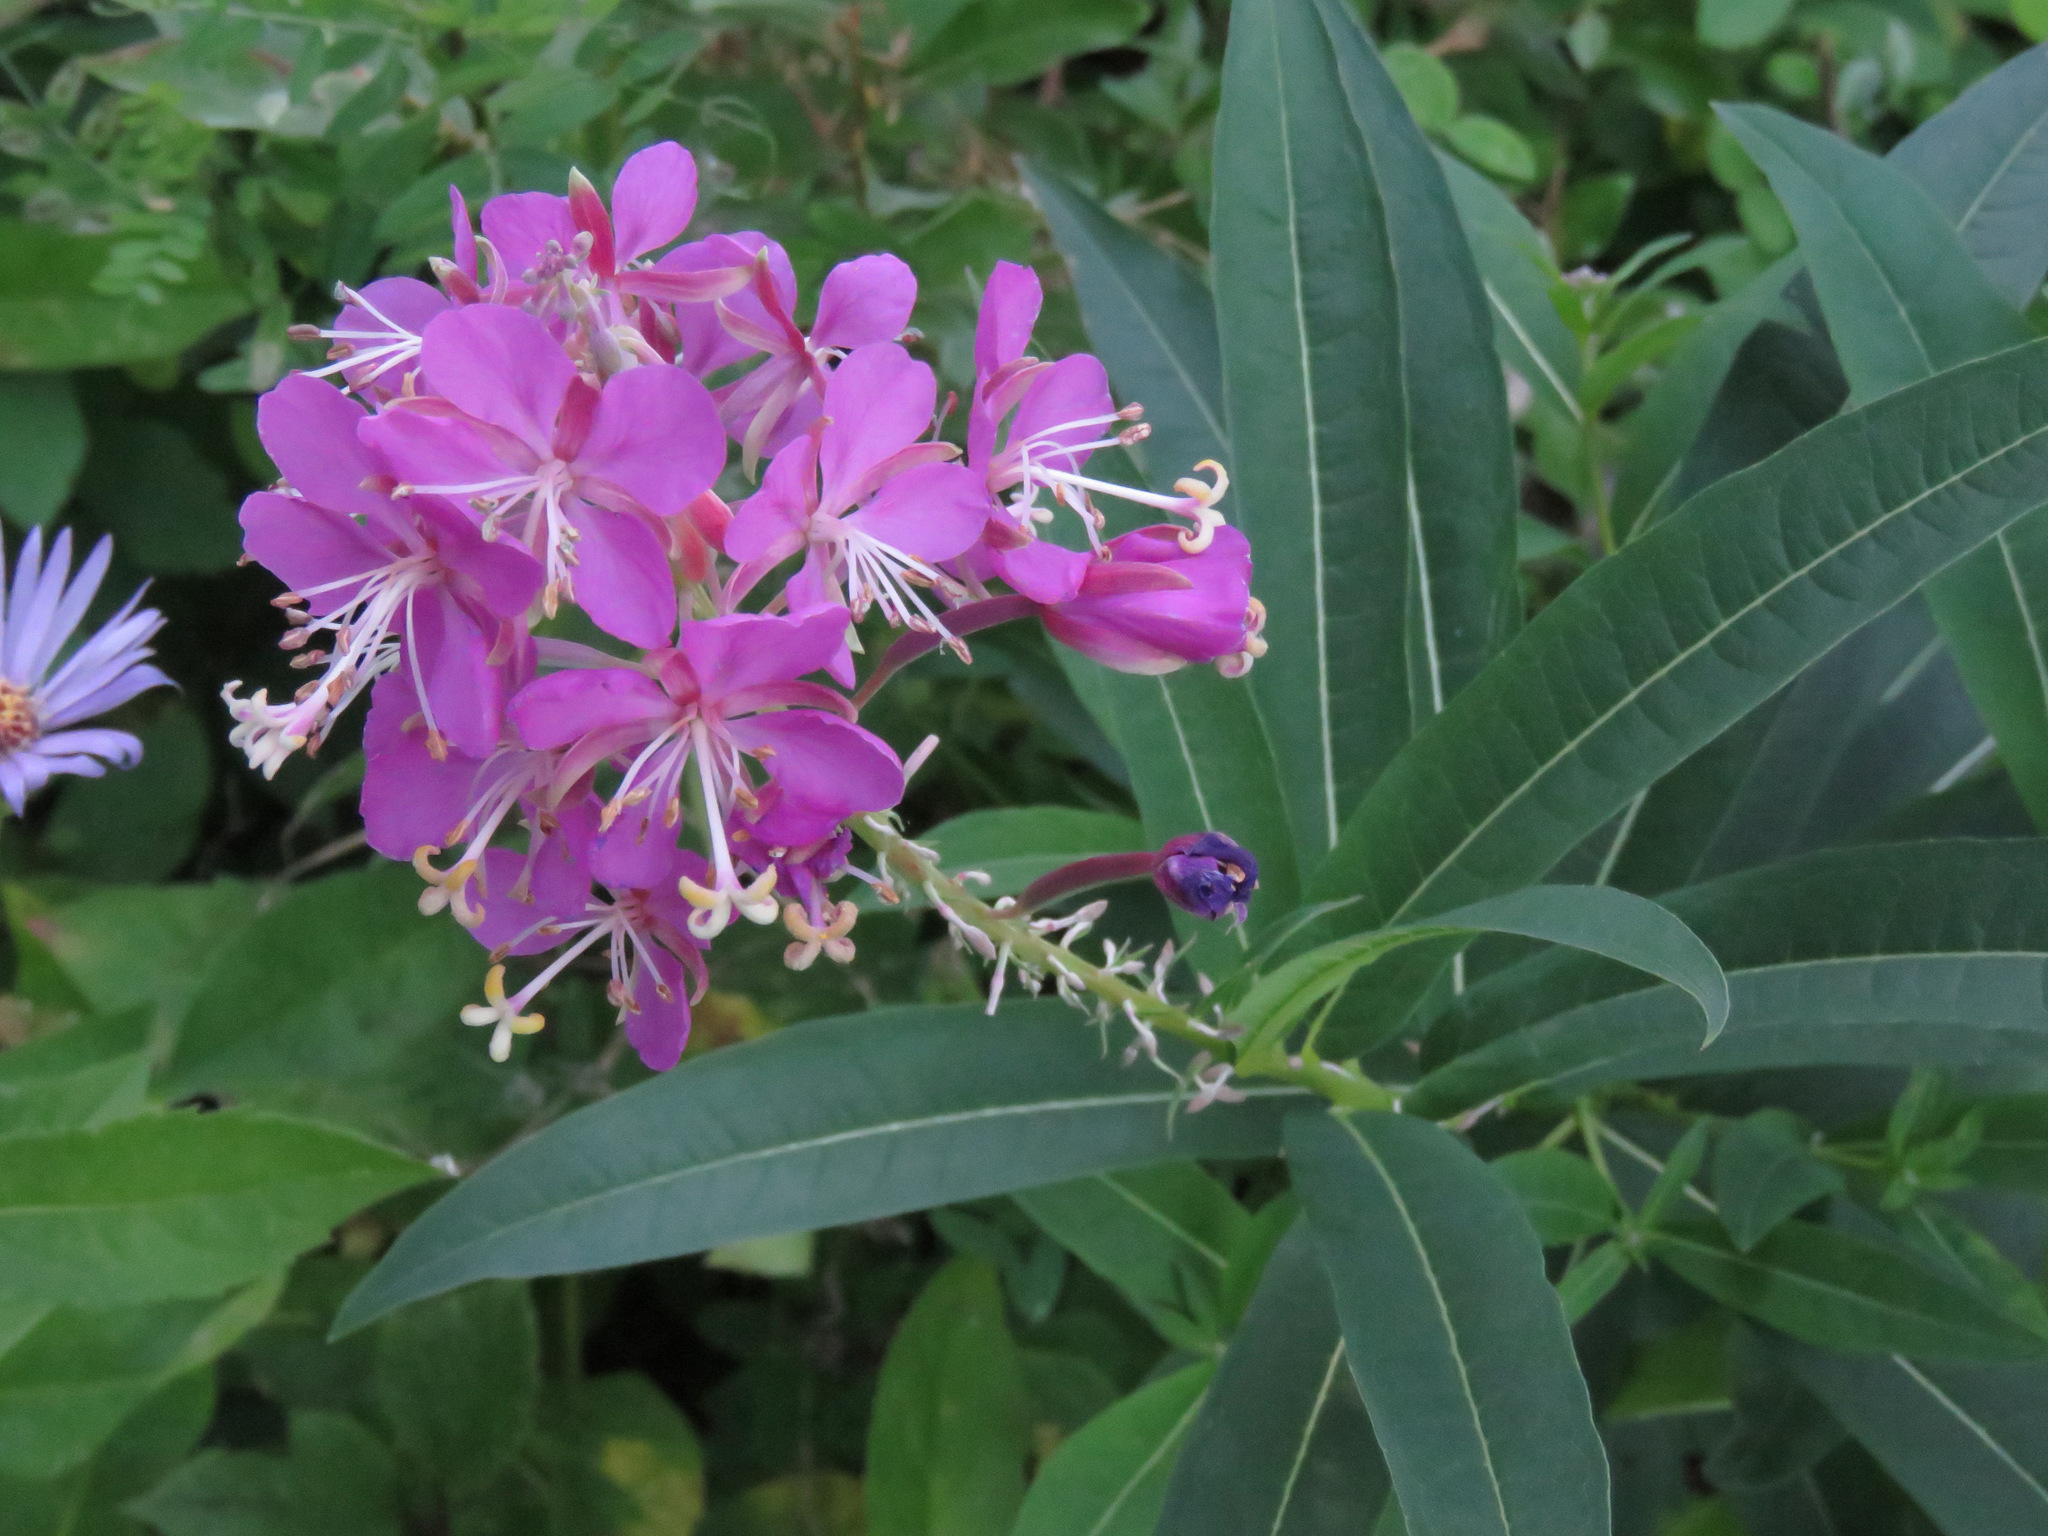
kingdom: Plantae
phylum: Tracheophyta
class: Magnoliopsida
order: Myrtales
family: Onagraceae
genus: Chamaenerion
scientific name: Chamaenerion angustifolium
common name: Fireweed
